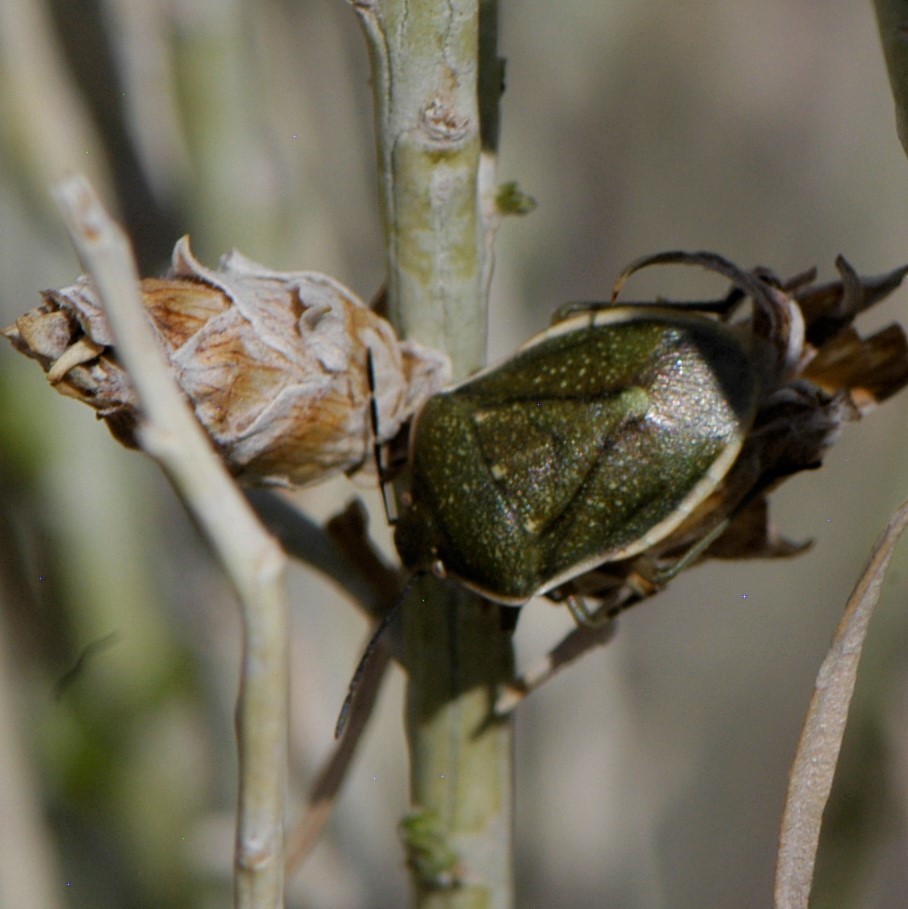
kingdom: Animalia
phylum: Arthropoda
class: Insecta
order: Hemiptera
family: Pentatomidae
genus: Chlorochroa
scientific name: Chlorochroa
